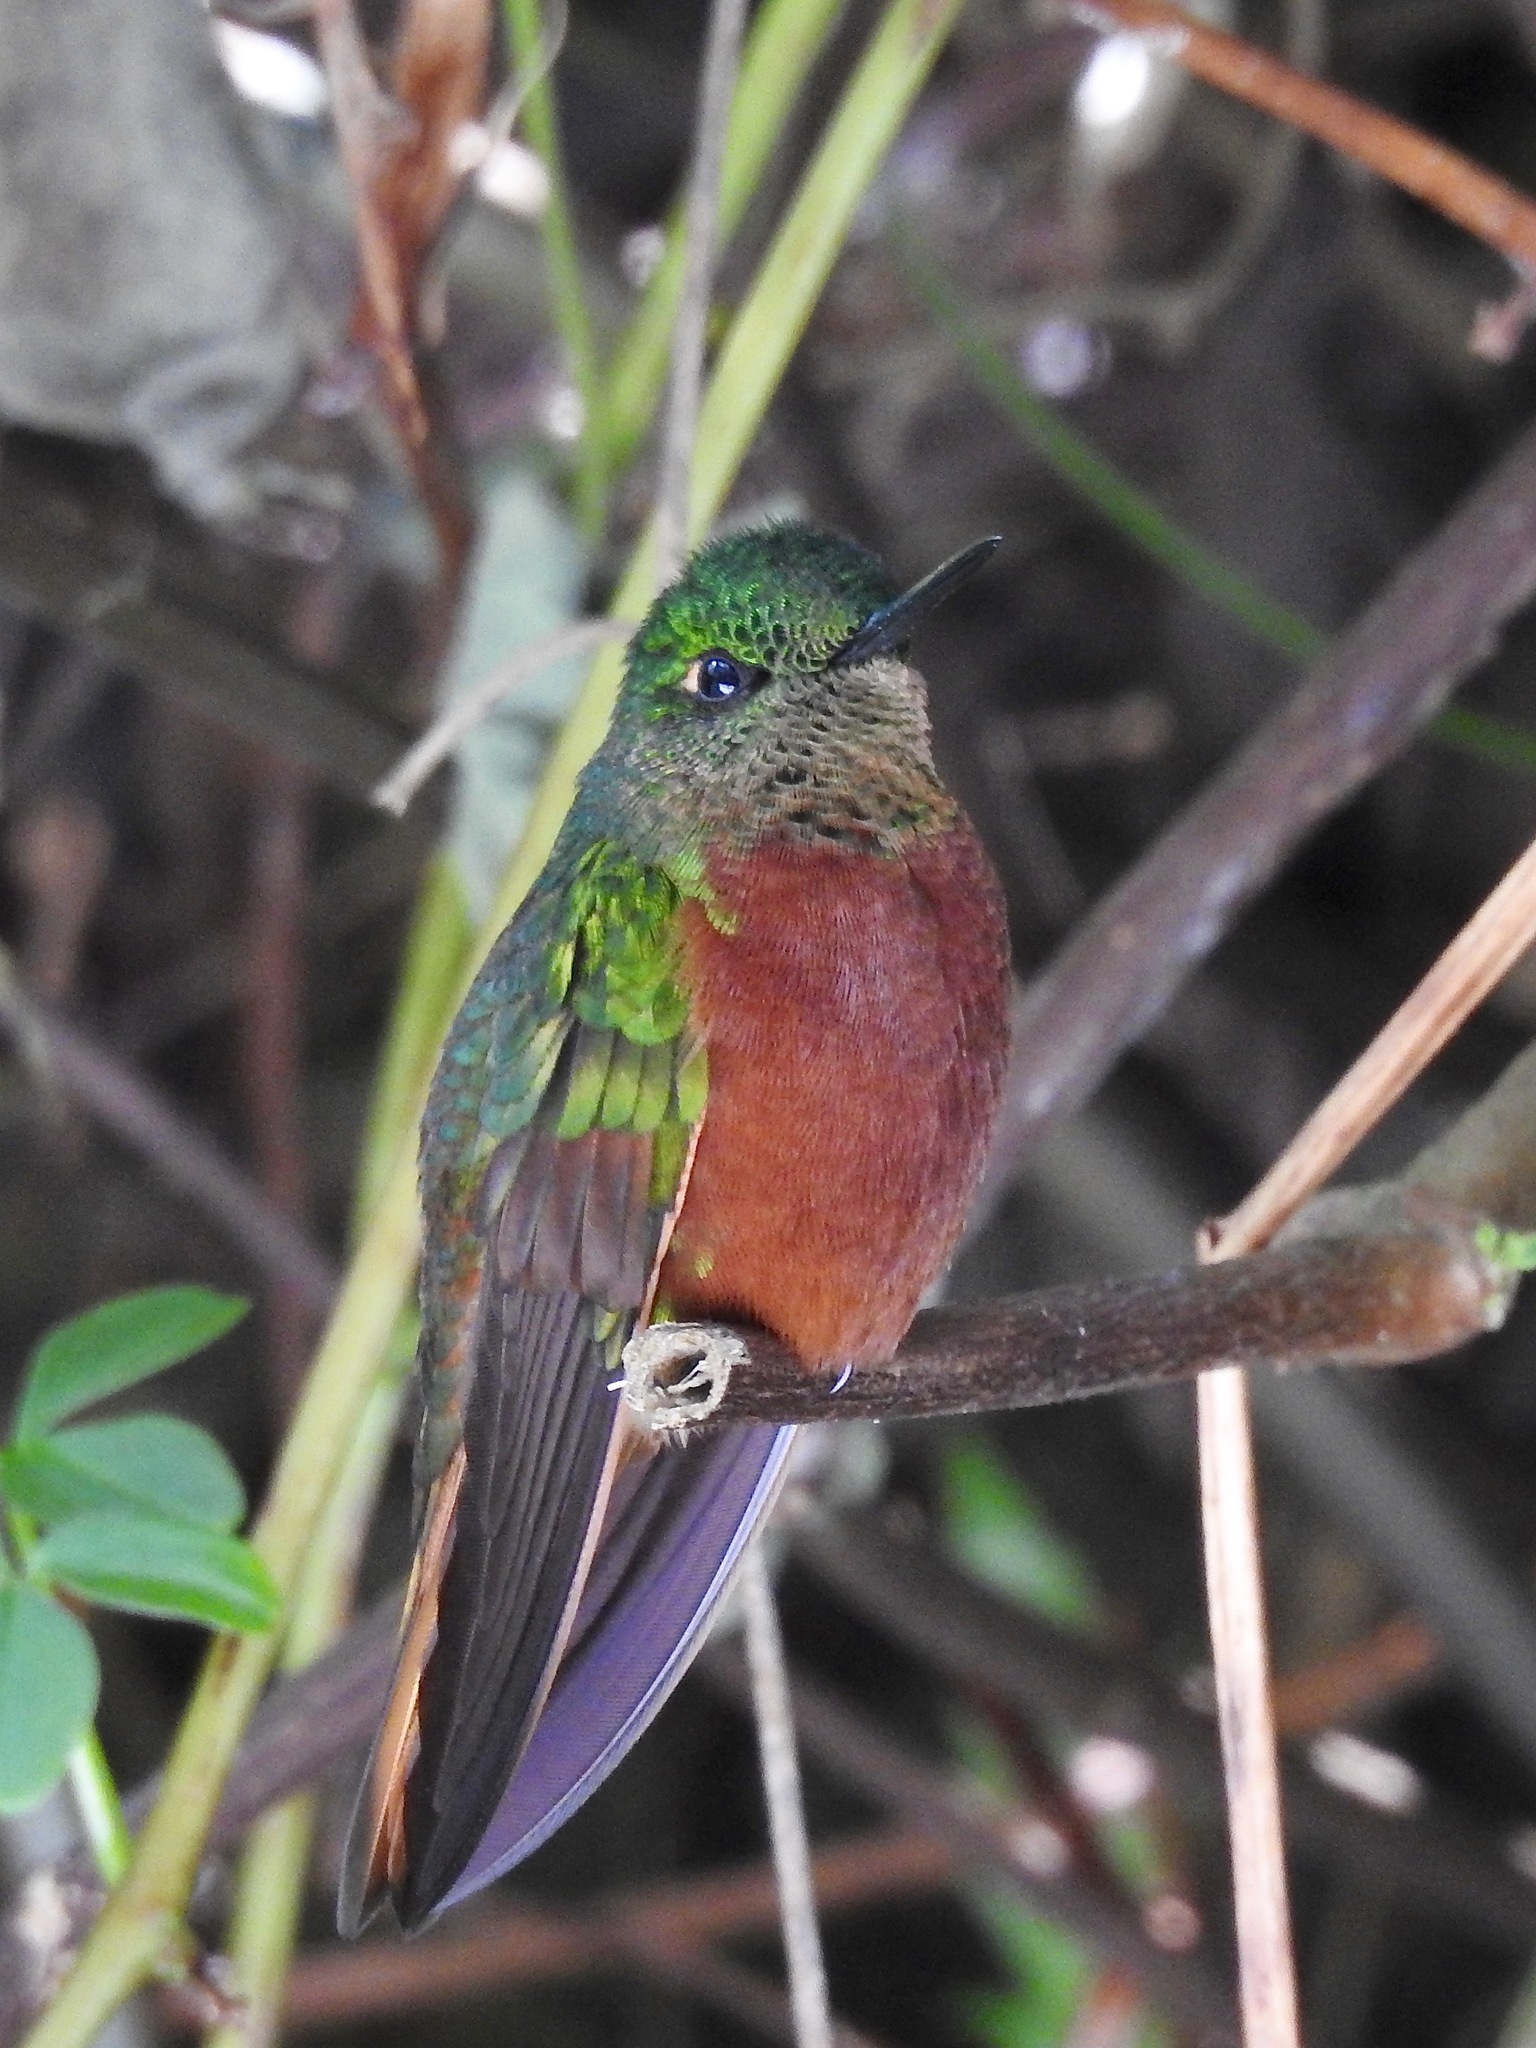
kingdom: Animalia
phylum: Chordata
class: Aves
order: Apodiformes
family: Trochilidae
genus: Boissonneaua
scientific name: Boissonneaua matthewsii
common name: Chestnut-breasted coronet
